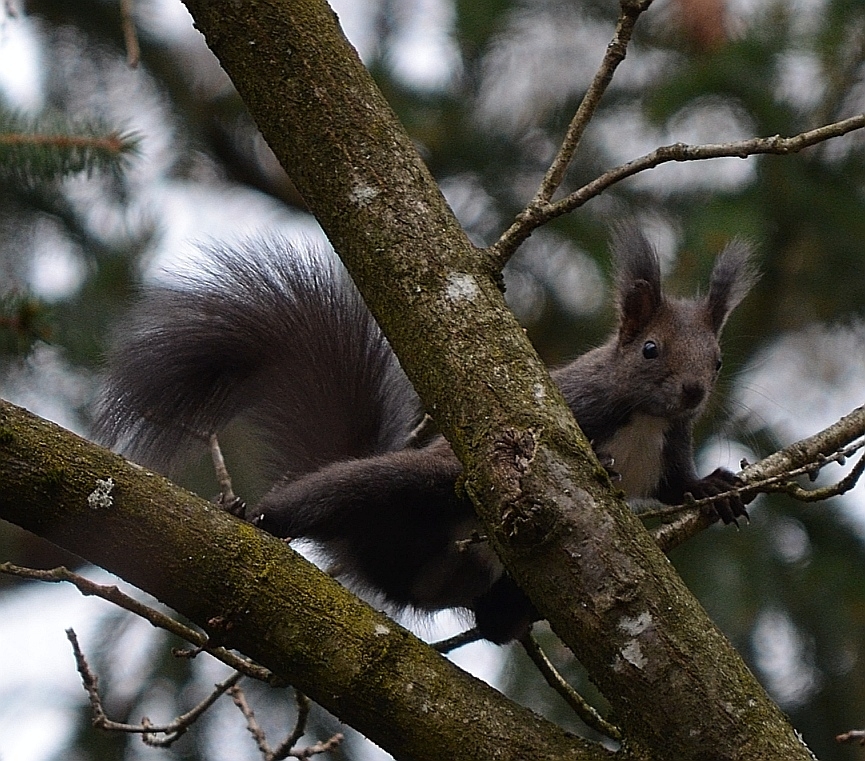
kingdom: Animalia
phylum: Chordata
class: Mammalia
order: Rodentia
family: Sciuridae
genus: Sciurus
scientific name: Sciurus vulgaris
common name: Eurasian red squirrel
